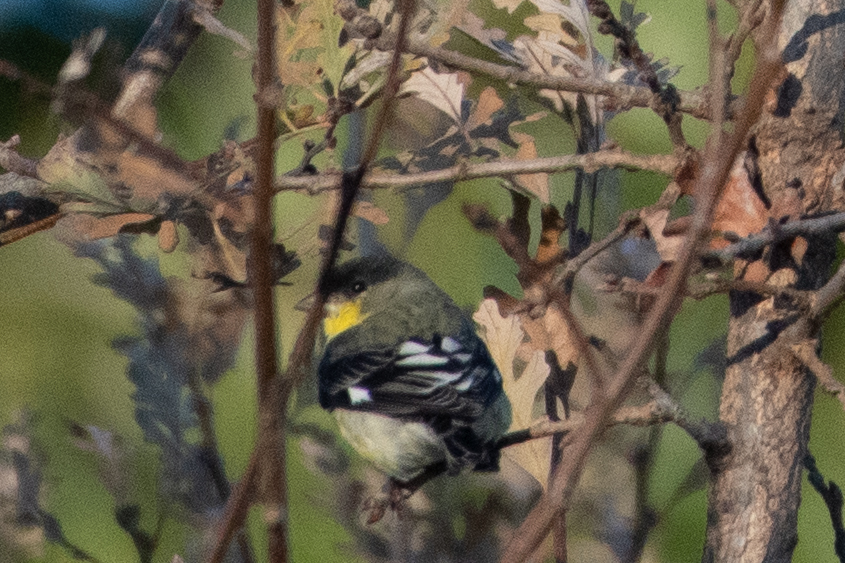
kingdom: Animalia
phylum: Chordata
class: Aves
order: Passeriformes
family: Fringillidae
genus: Spinus
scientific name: Spinus psaltria
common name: Lesser goldfinch
